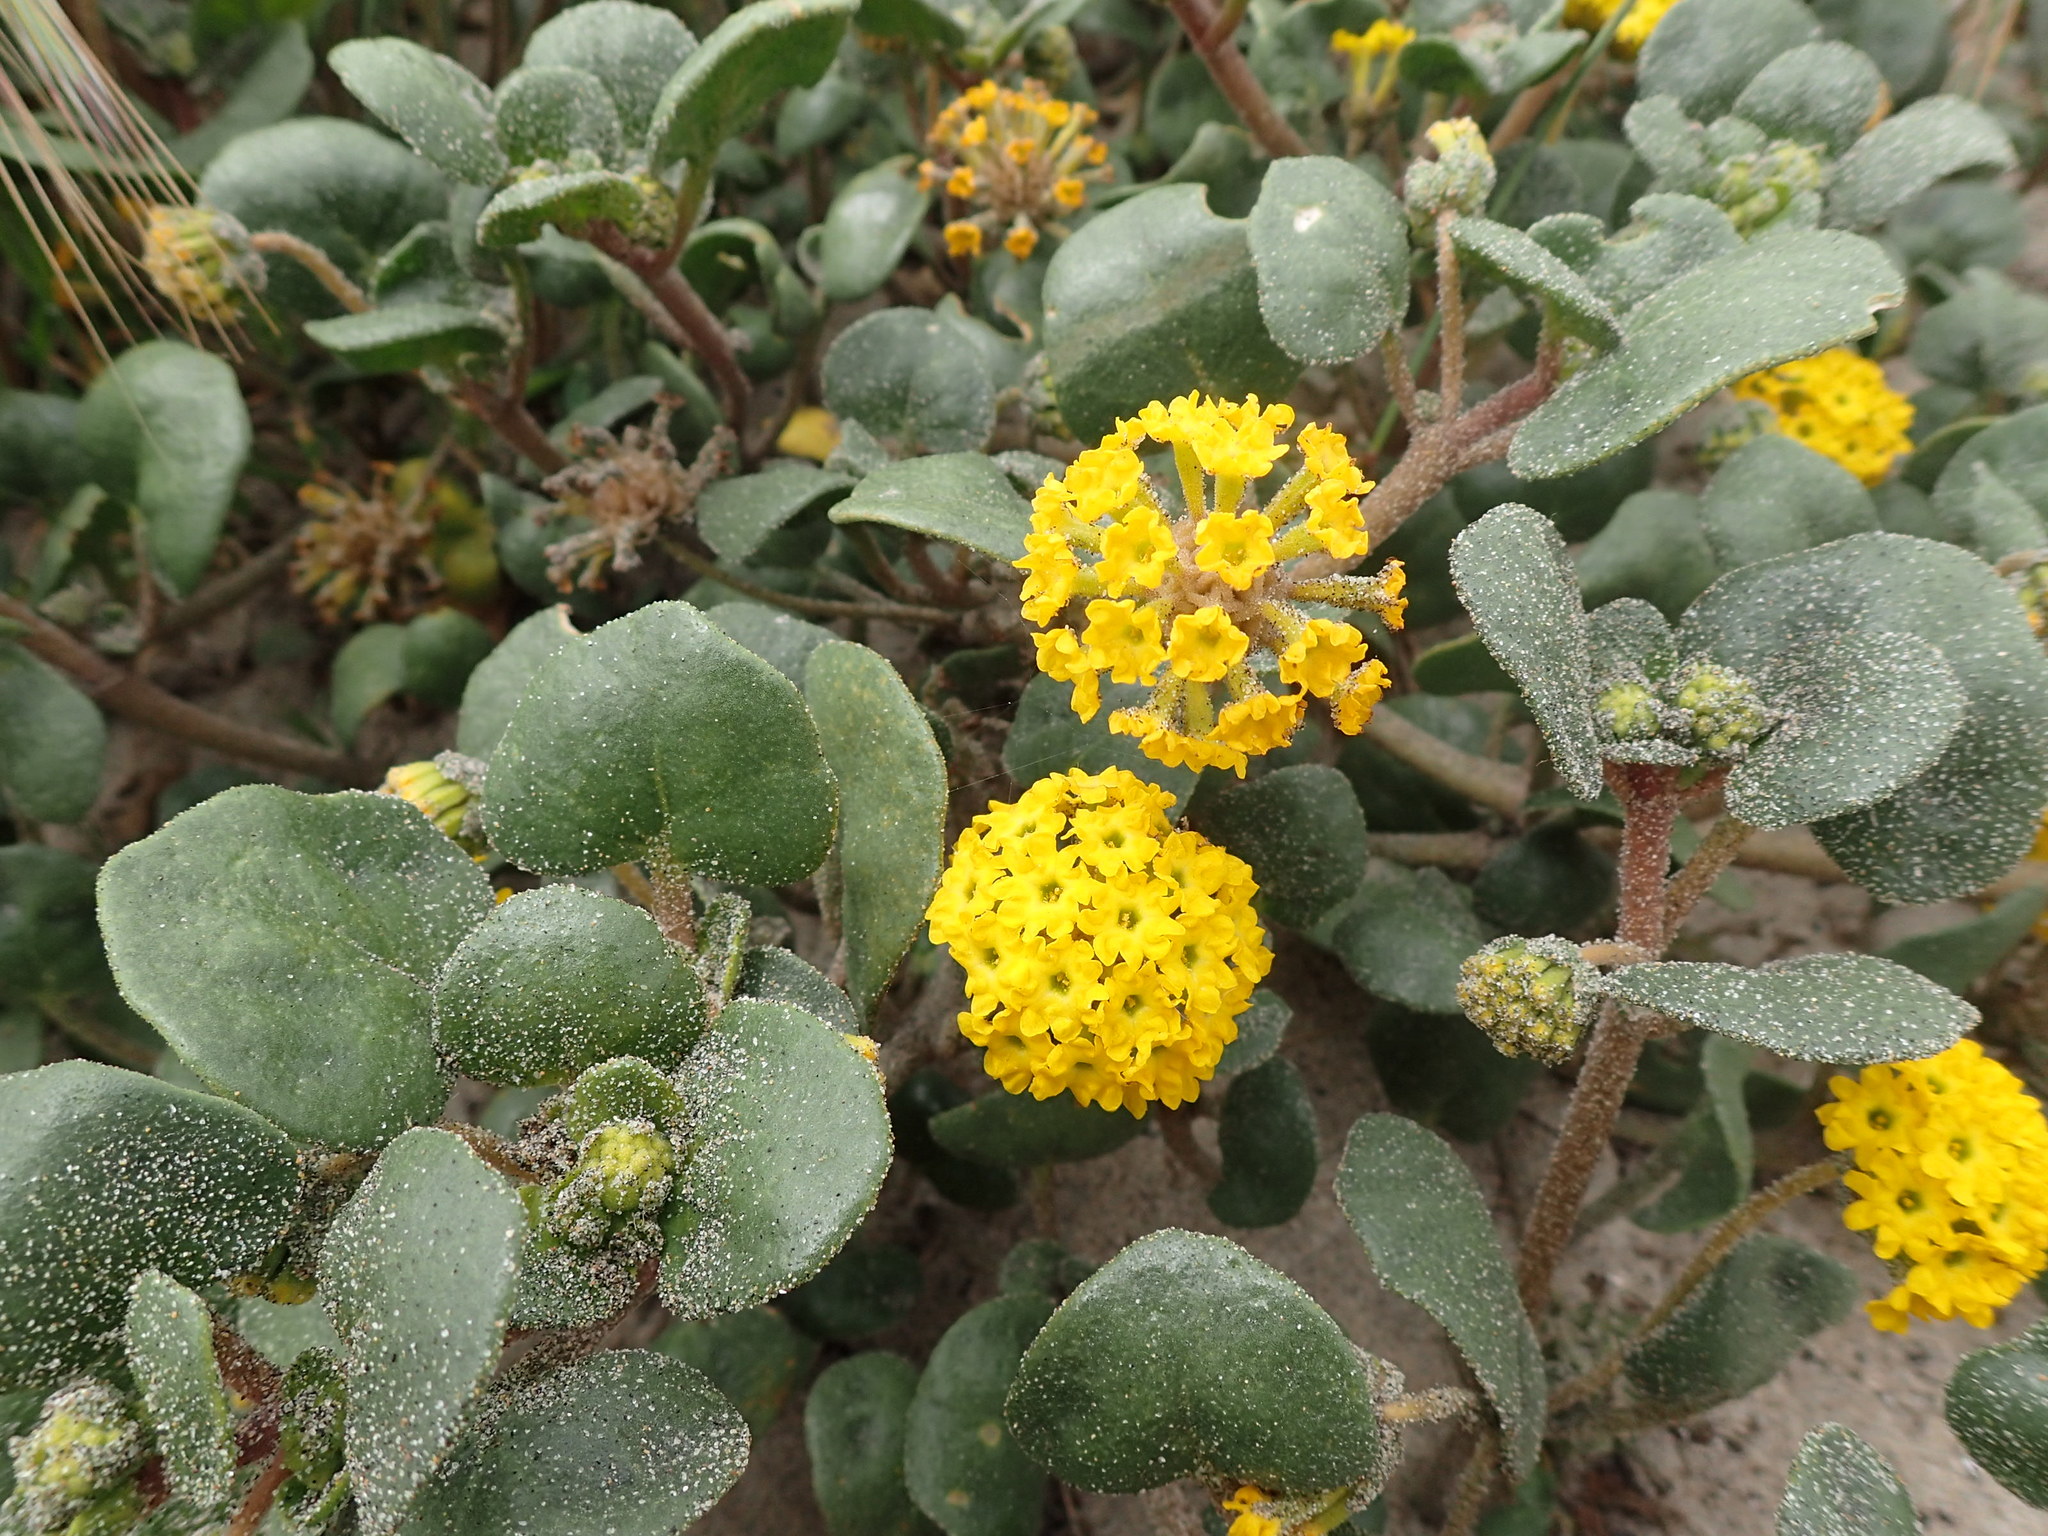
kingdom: Plantae
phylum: Tracheophyta
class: Magnoliopsida
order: Caryophyllales
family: Nyctaginaceae
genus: Abronia
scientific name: Abronia latifolia
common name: Yellow sand-verbena
